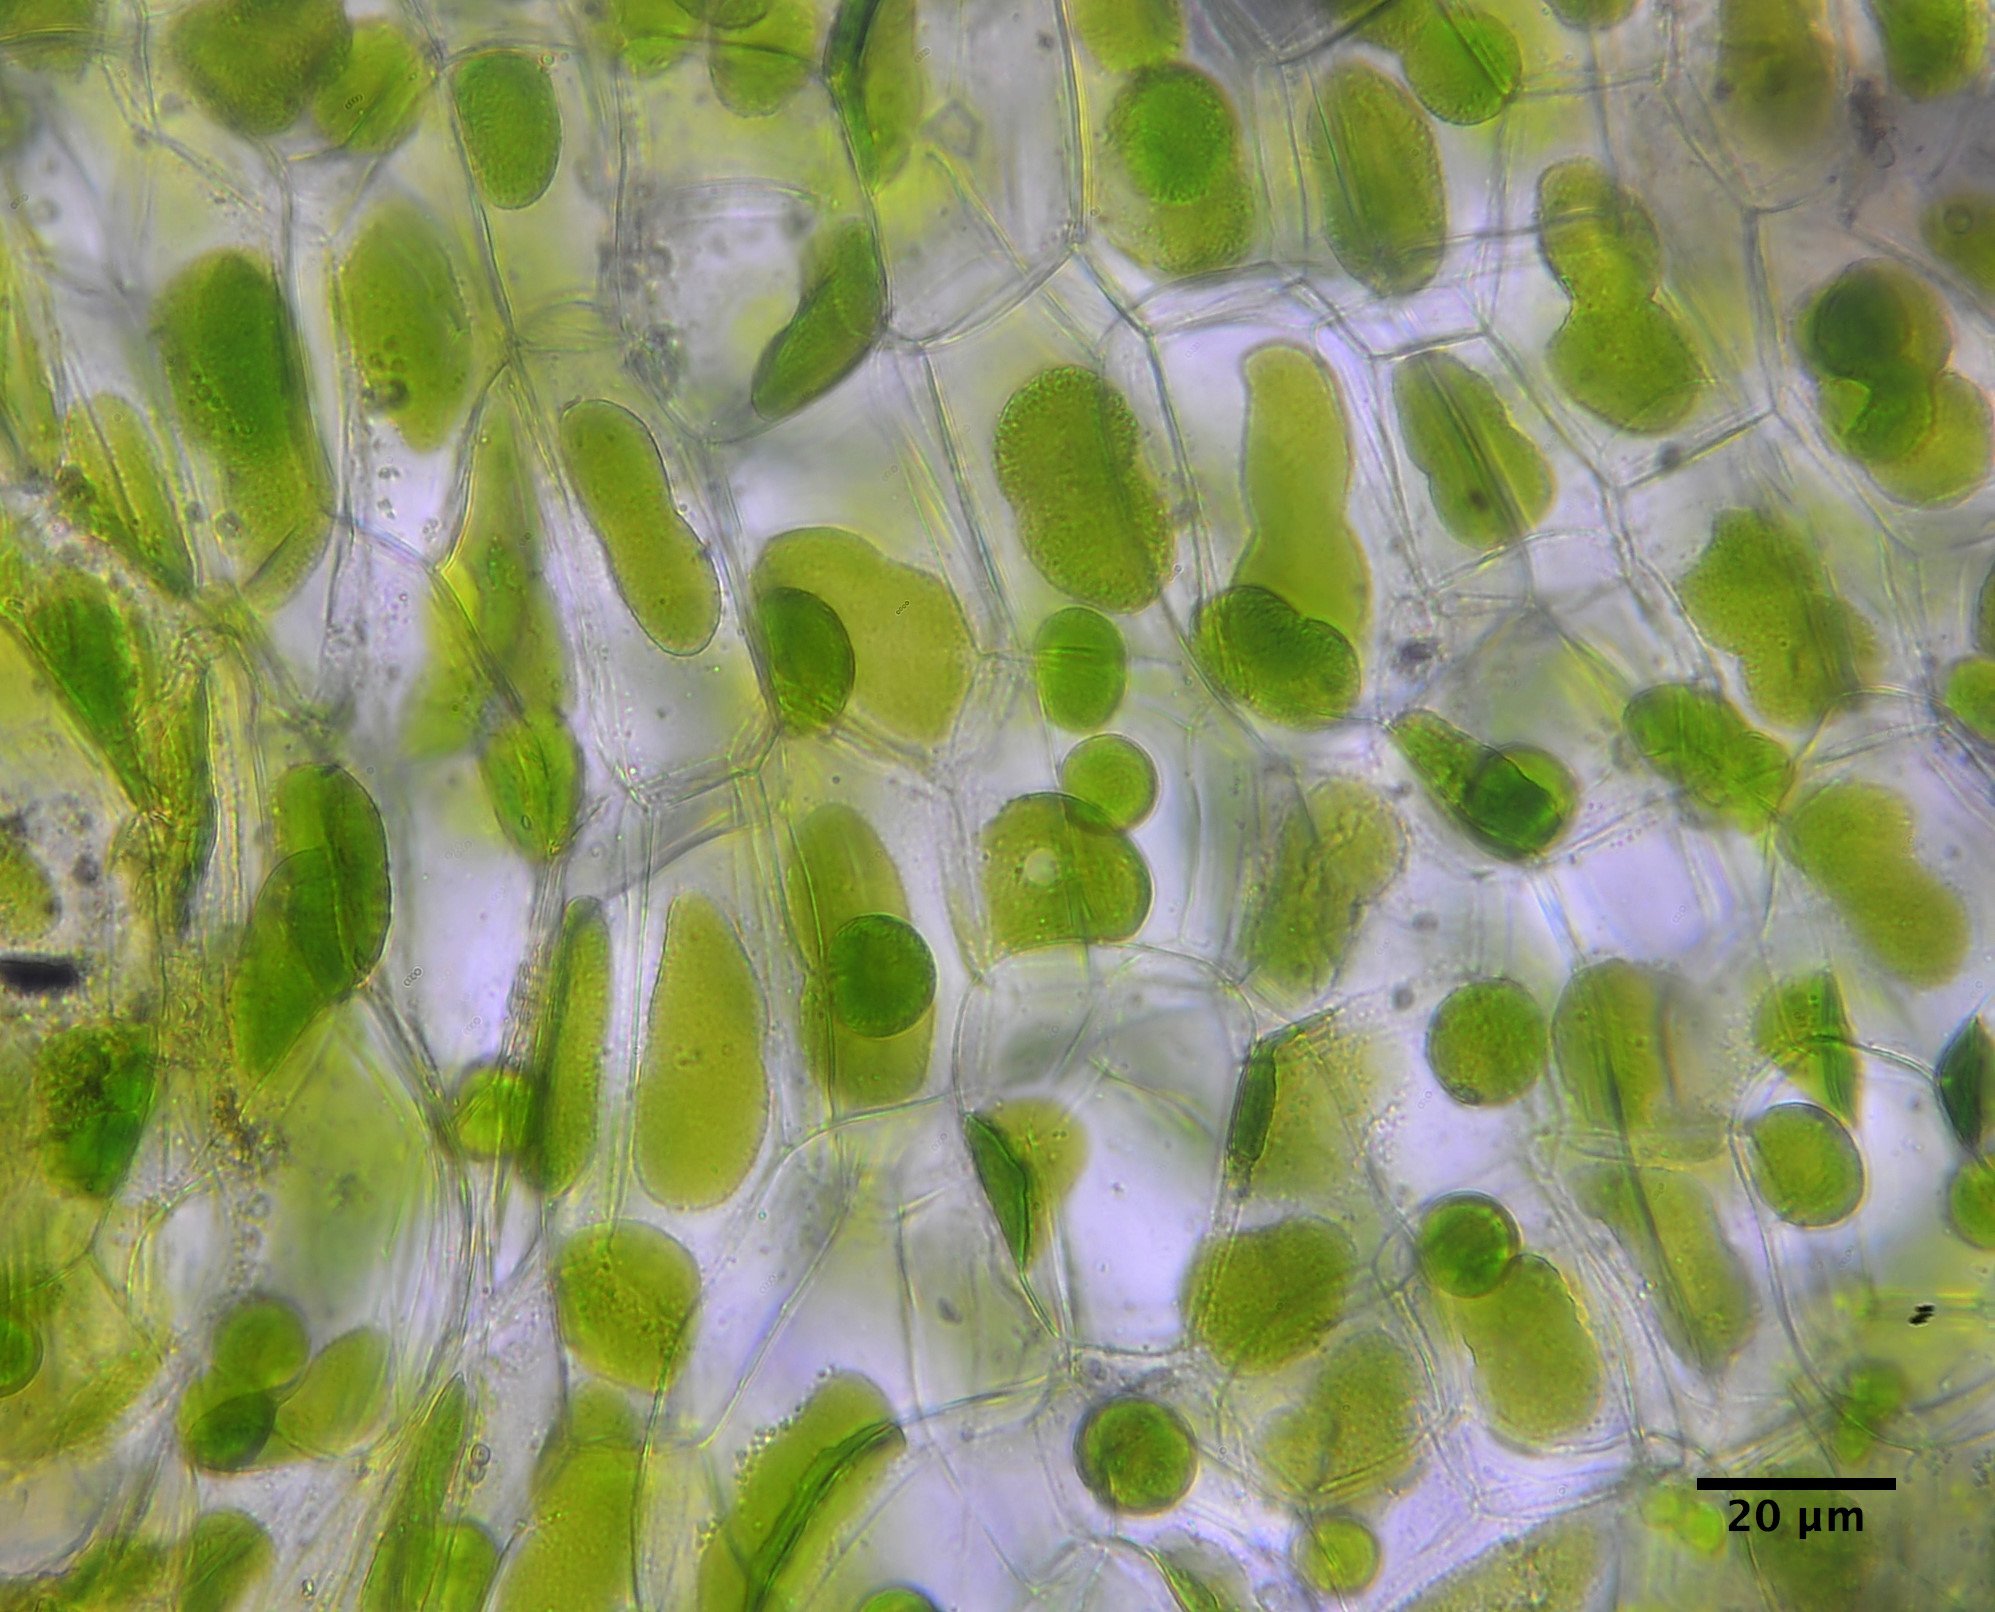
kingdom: Plantae
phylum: Anthocerotophyta
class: Anthocerotopsida
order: Notothyladales
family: Notothyladaceae
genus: Paraphymatoceros
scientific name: Paraphymatoceros pearsonii
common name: Pearson's phaeoceros
